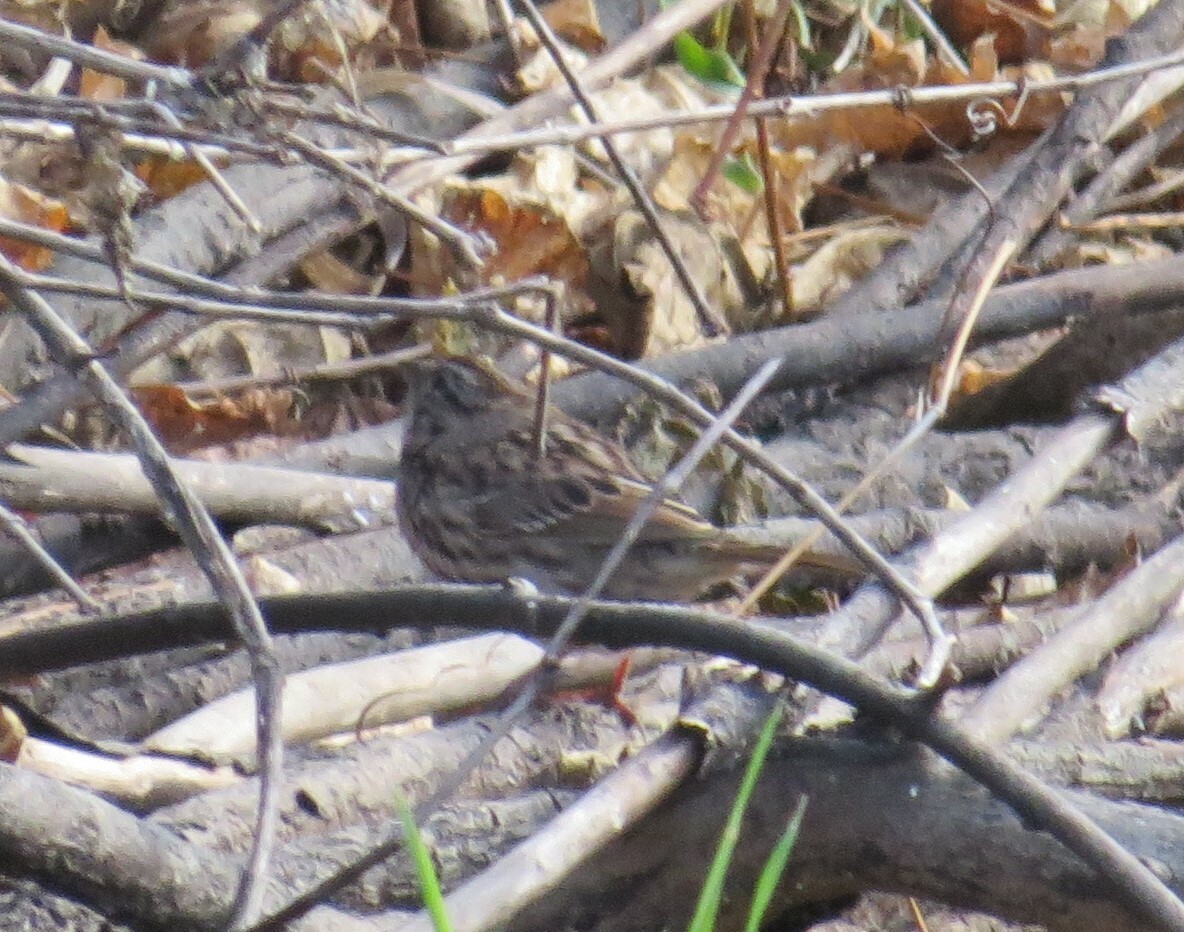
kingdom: Animalia
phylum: Chordata
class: Aves
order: Passeriformes
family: Passerellidae
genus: Melospiza
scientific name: Melospiza melodia
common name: Song sparrow
